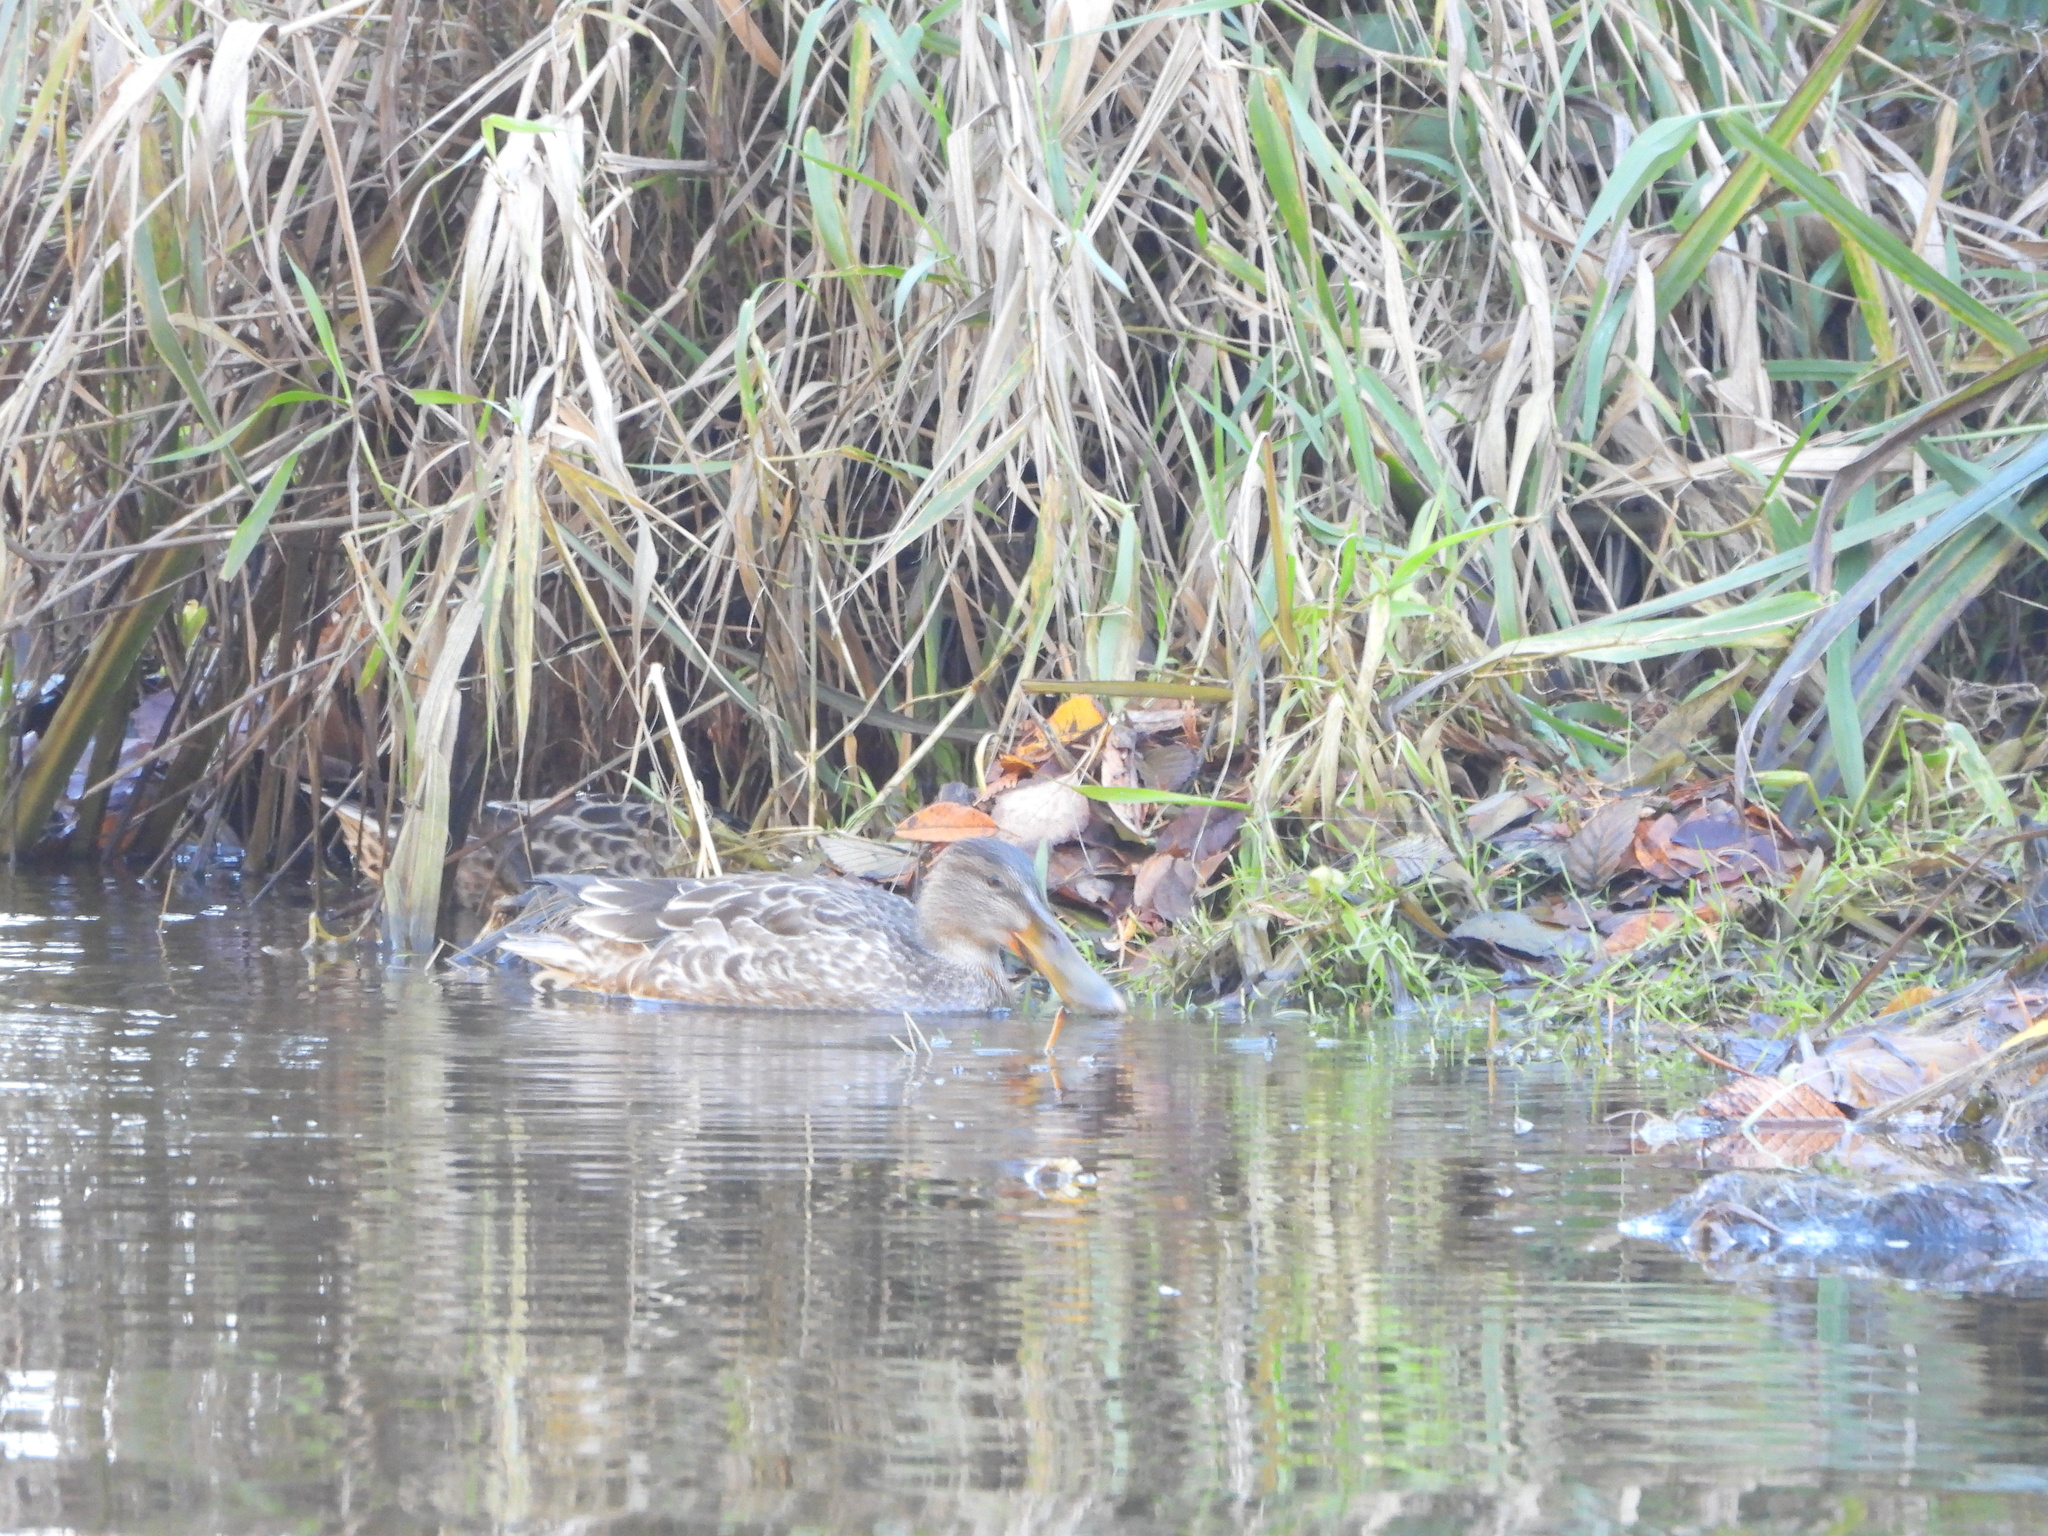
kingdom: Animalia
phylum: Chordata
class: Aves
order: Anseriformes
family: Anatidae
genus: Spatula
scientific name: Spatula clypeata
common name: Northern shoveler
